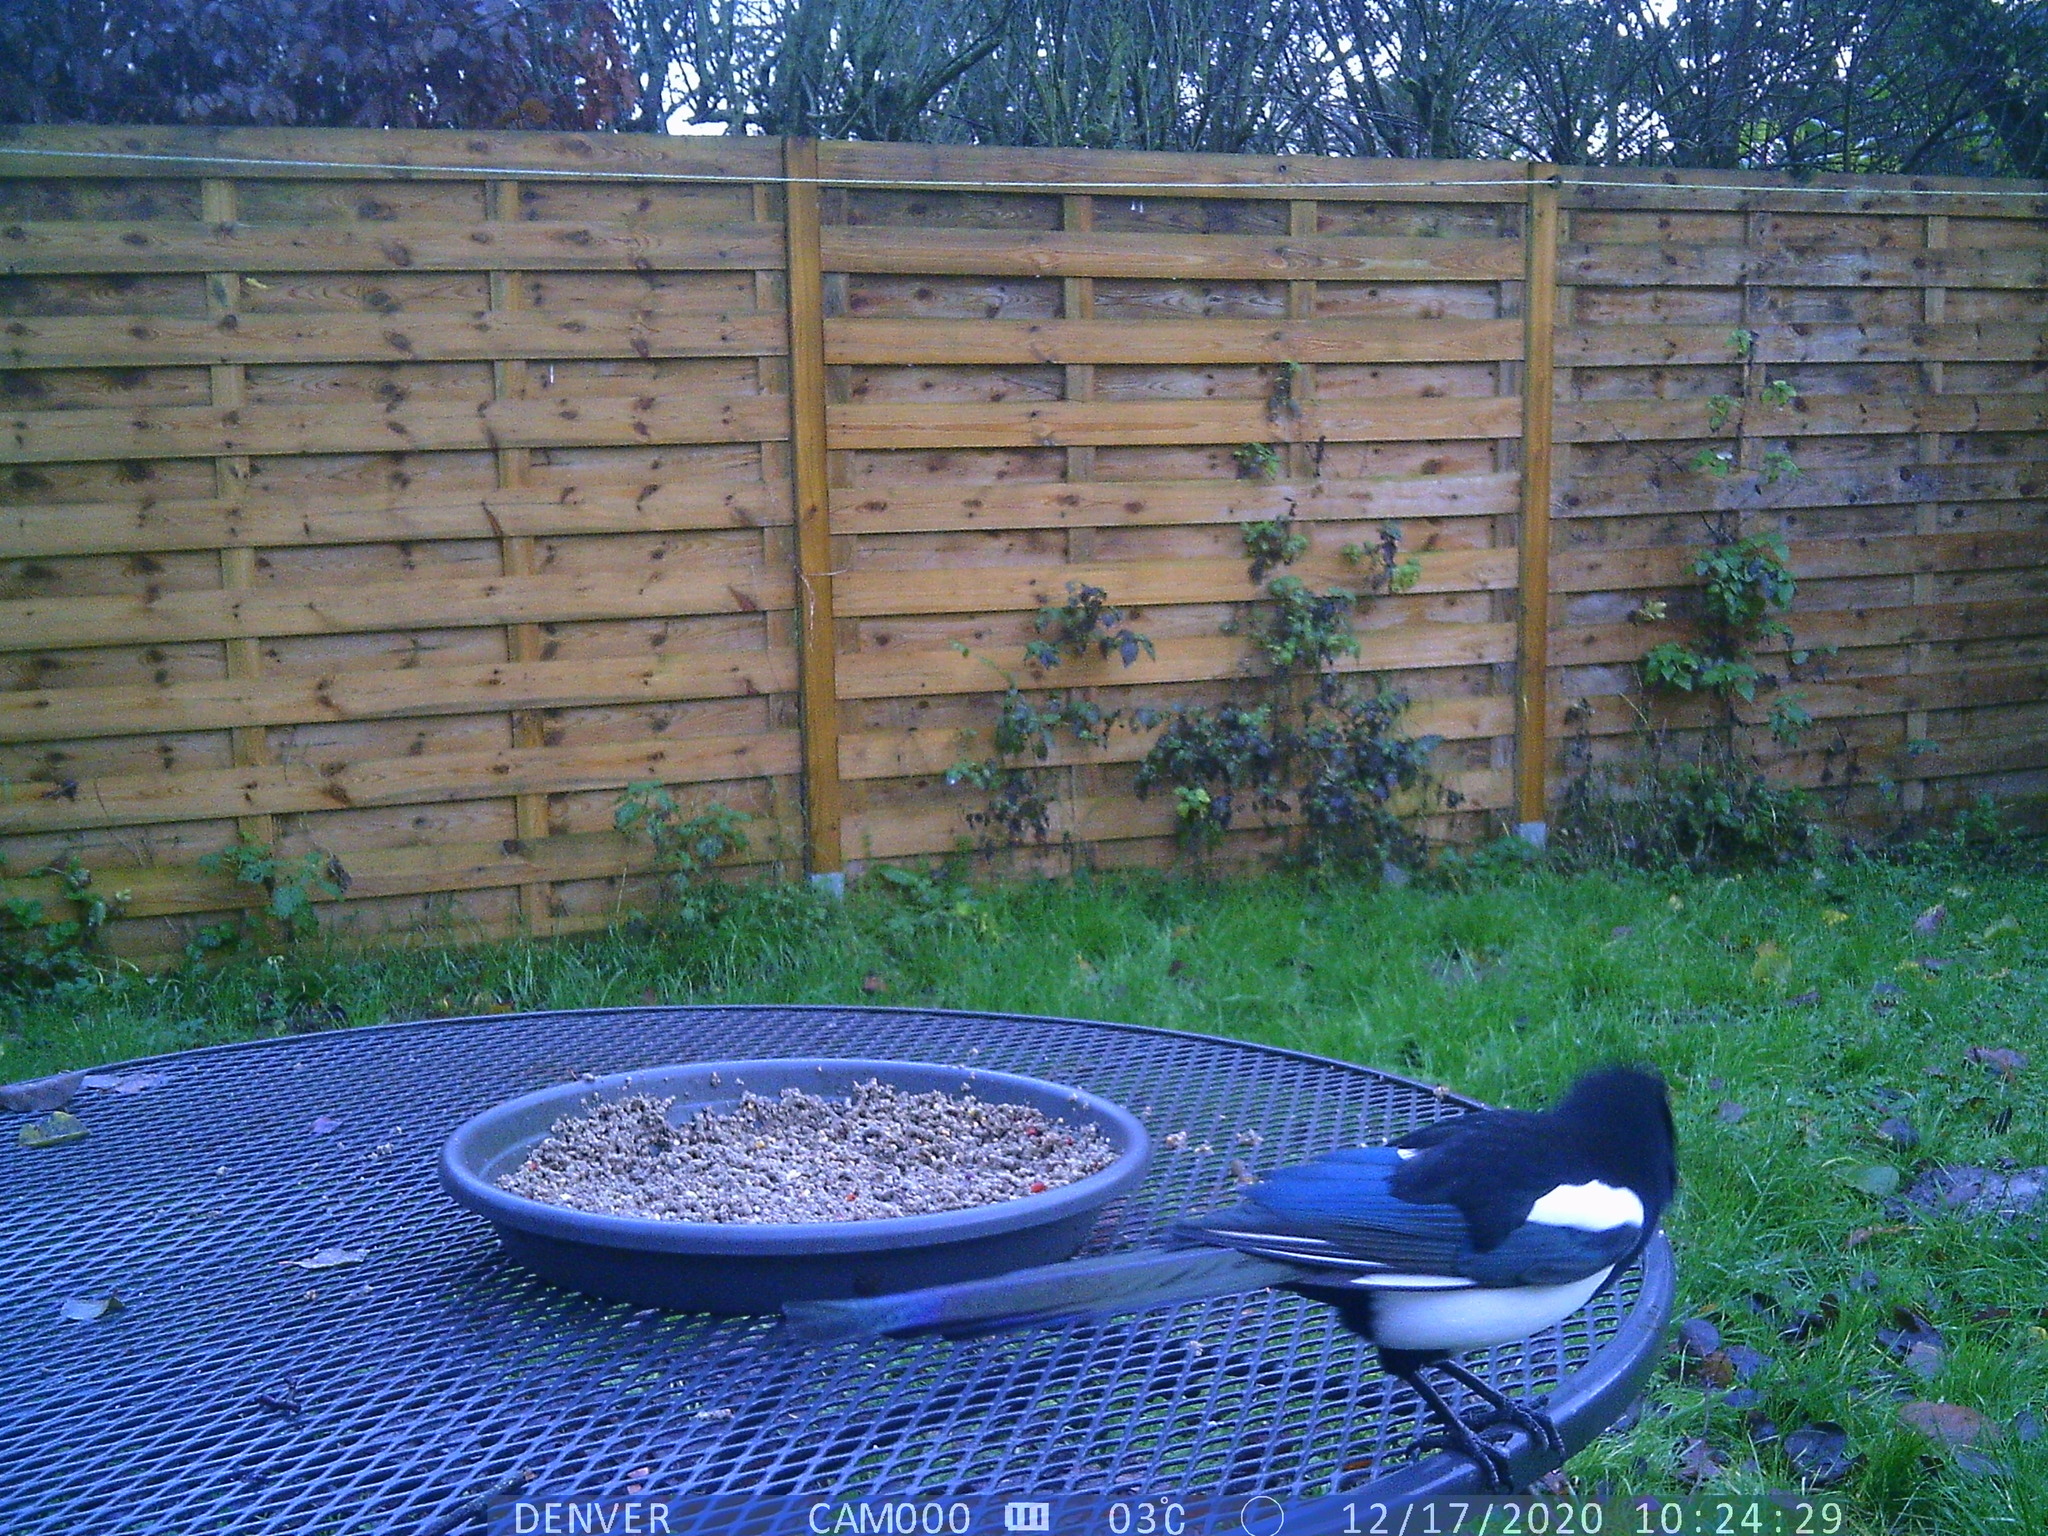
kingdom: Animalia
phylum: Chordata
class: Aves
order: Passeriformes
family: Corvidae
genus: Pica
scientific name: Pica pica
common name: Eurasian magpie
